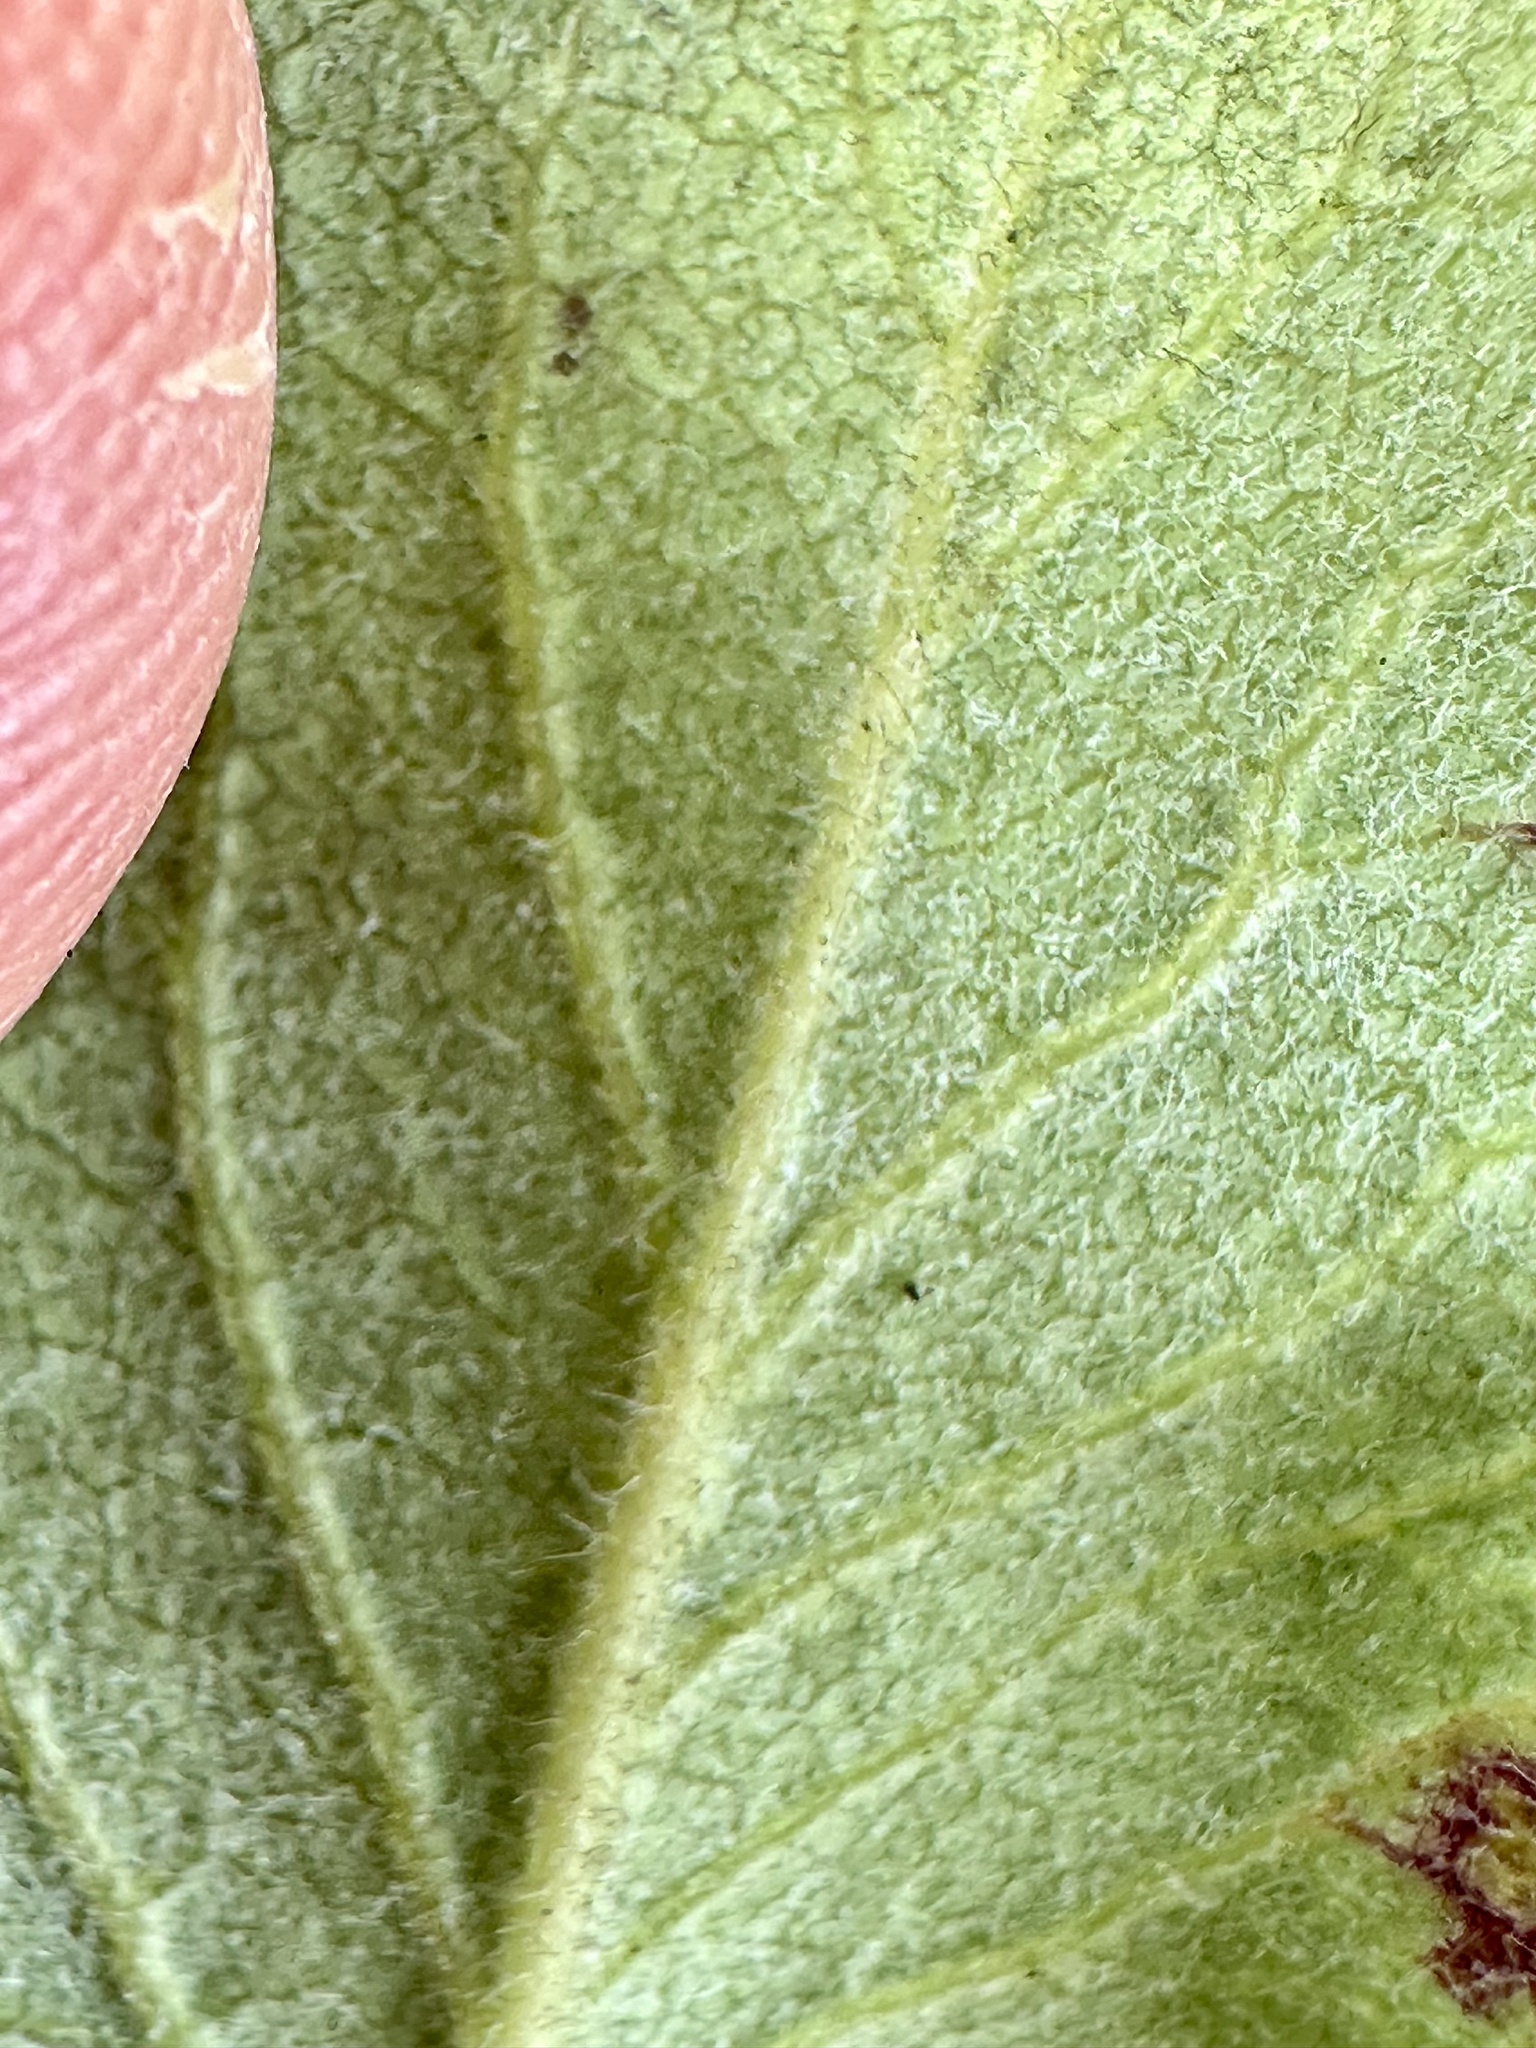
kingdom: Plantae
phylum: Tracheophyta
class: Magnoliopsida
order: Garryales
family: Garryaceae
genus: Garrya
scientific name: Garrya elliptica
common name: Silk-tassel
